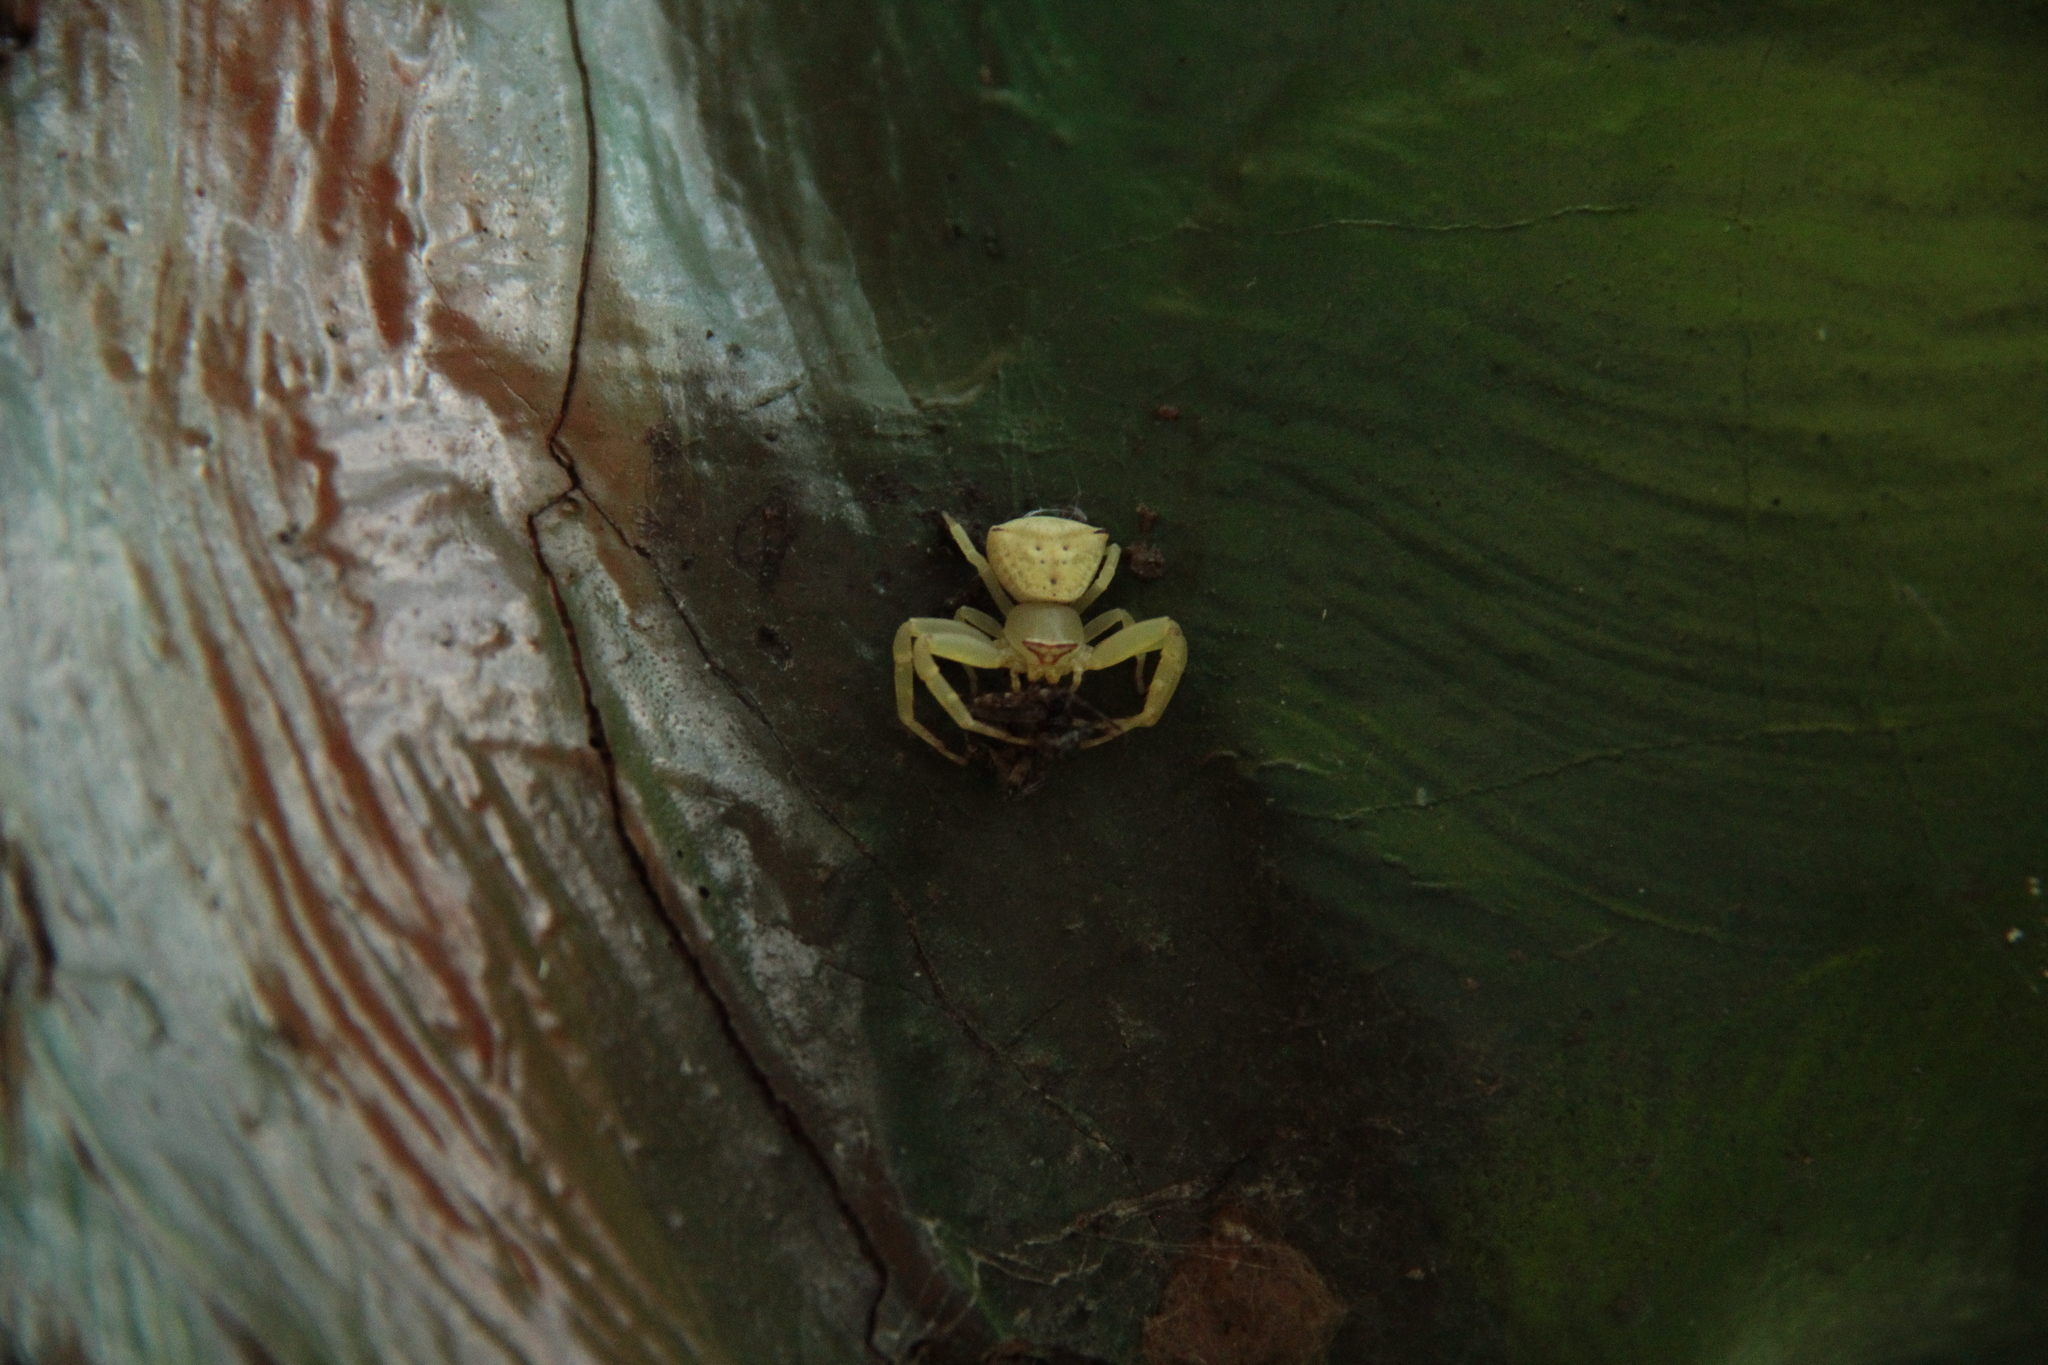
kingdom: Animalia
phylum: Arthropoda
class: Arachnida
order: Araneae
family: Thomisidae
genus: Thomisus
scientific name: Thomisus labefactus
